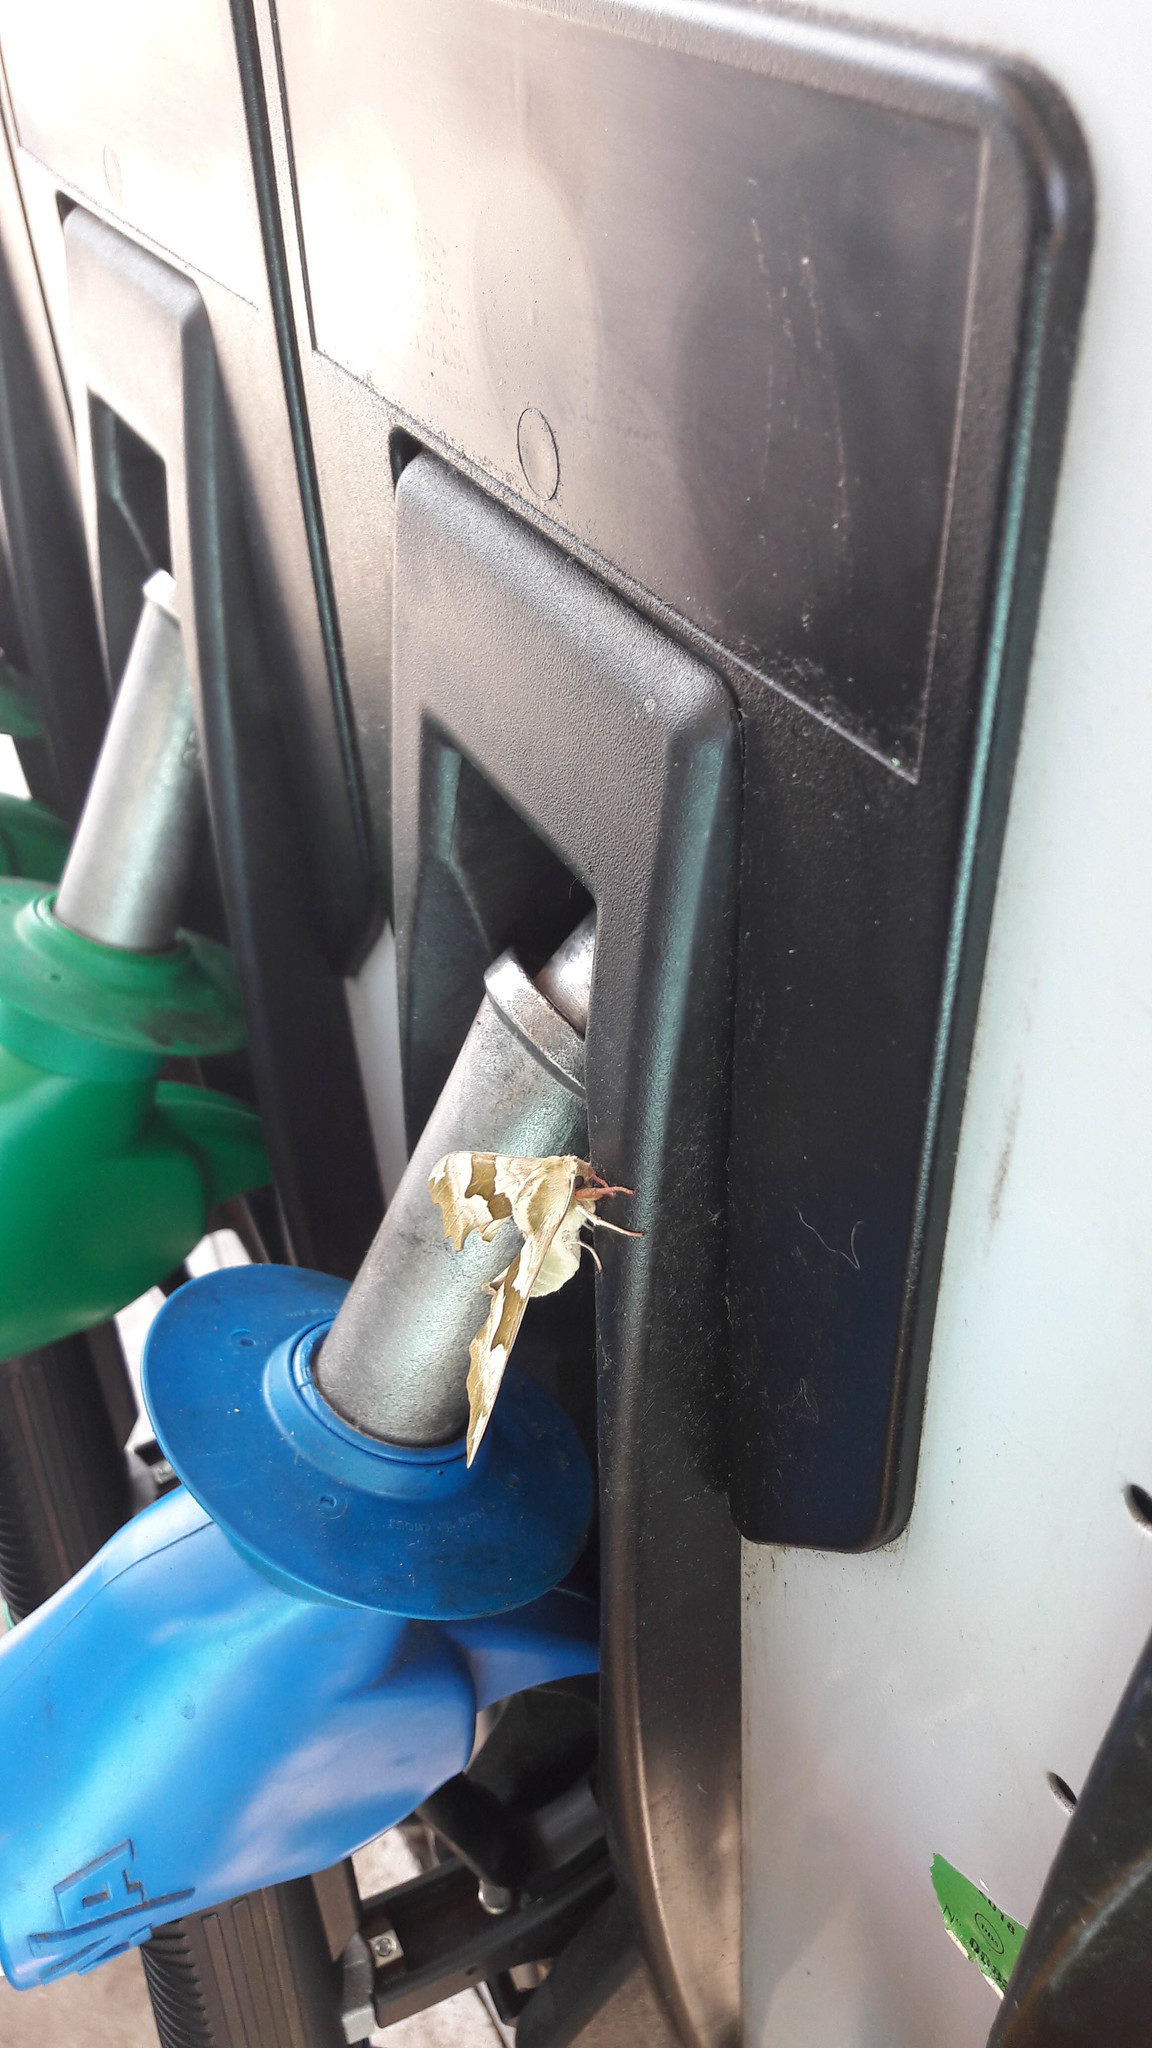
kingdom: Animalia
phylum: Arthropoda
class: Insecta
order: Lepidoptera
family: Sphingidae
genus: Mimas
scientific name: Mimas tiliae
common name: Lime hawk-moth
